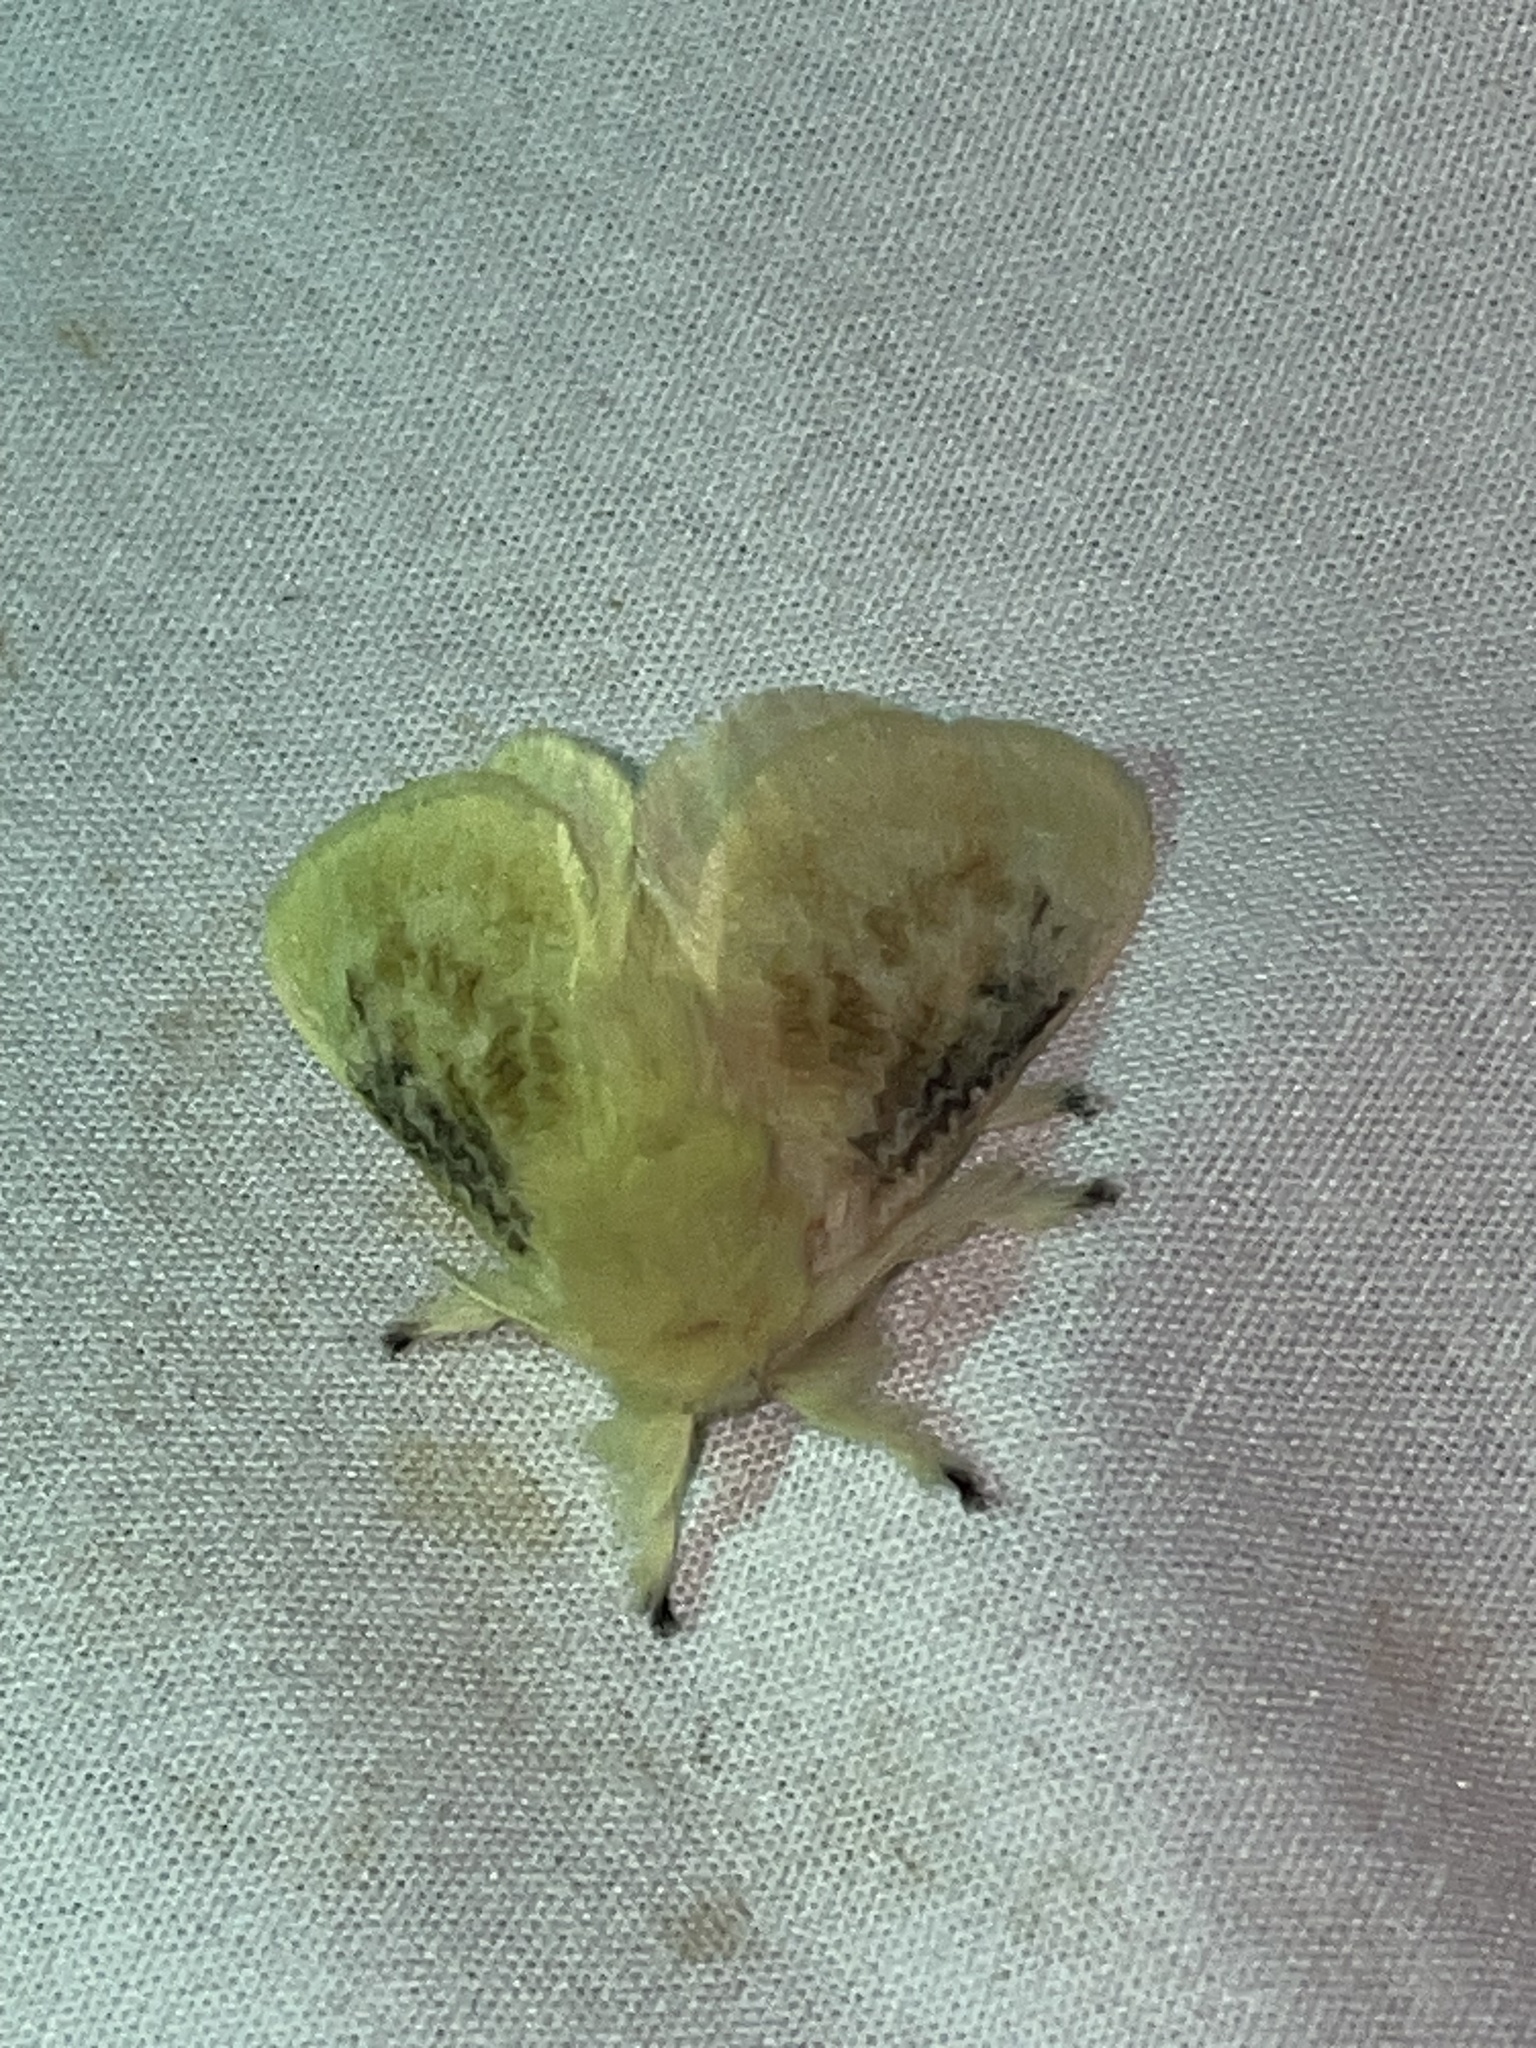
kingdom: Animalia
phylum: Arthropoda
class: Insecta
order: Lepidoptera
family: Megalopygidae
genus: Megalopyge
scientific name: Megalopyge crispata
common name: Black-waved flannel moth
